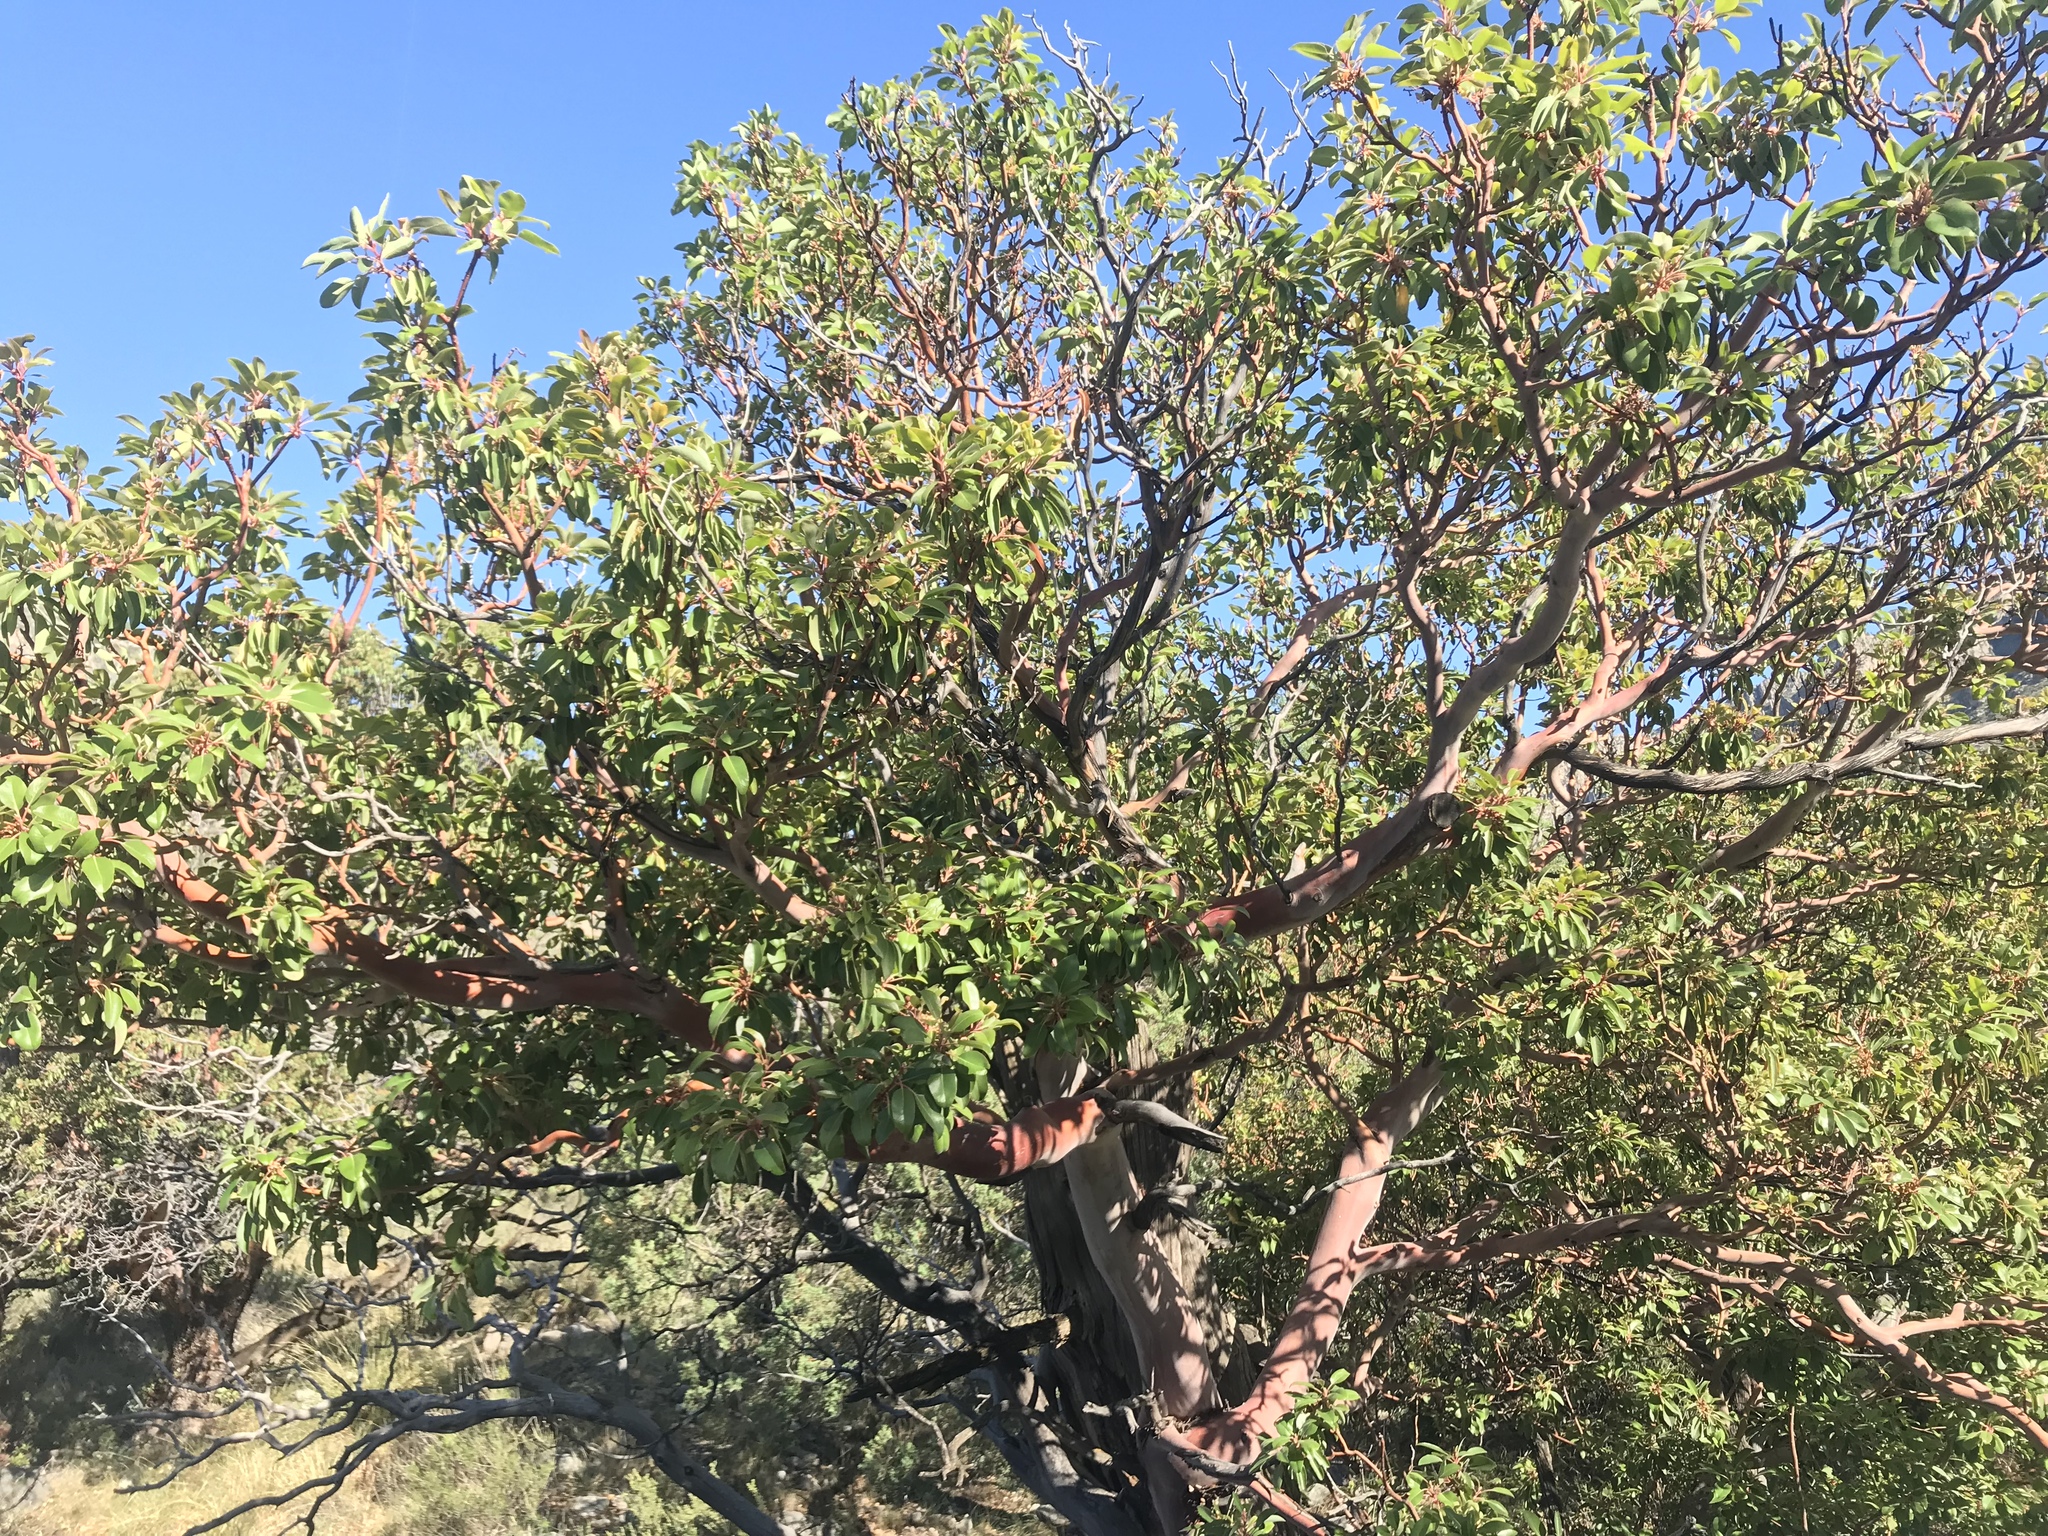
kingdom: Plantae
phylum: Tracheophyta
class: Magnoliopsida
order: Ericales
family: Ericaceae
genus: Arbutus
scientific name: Arbutus xalapensis
